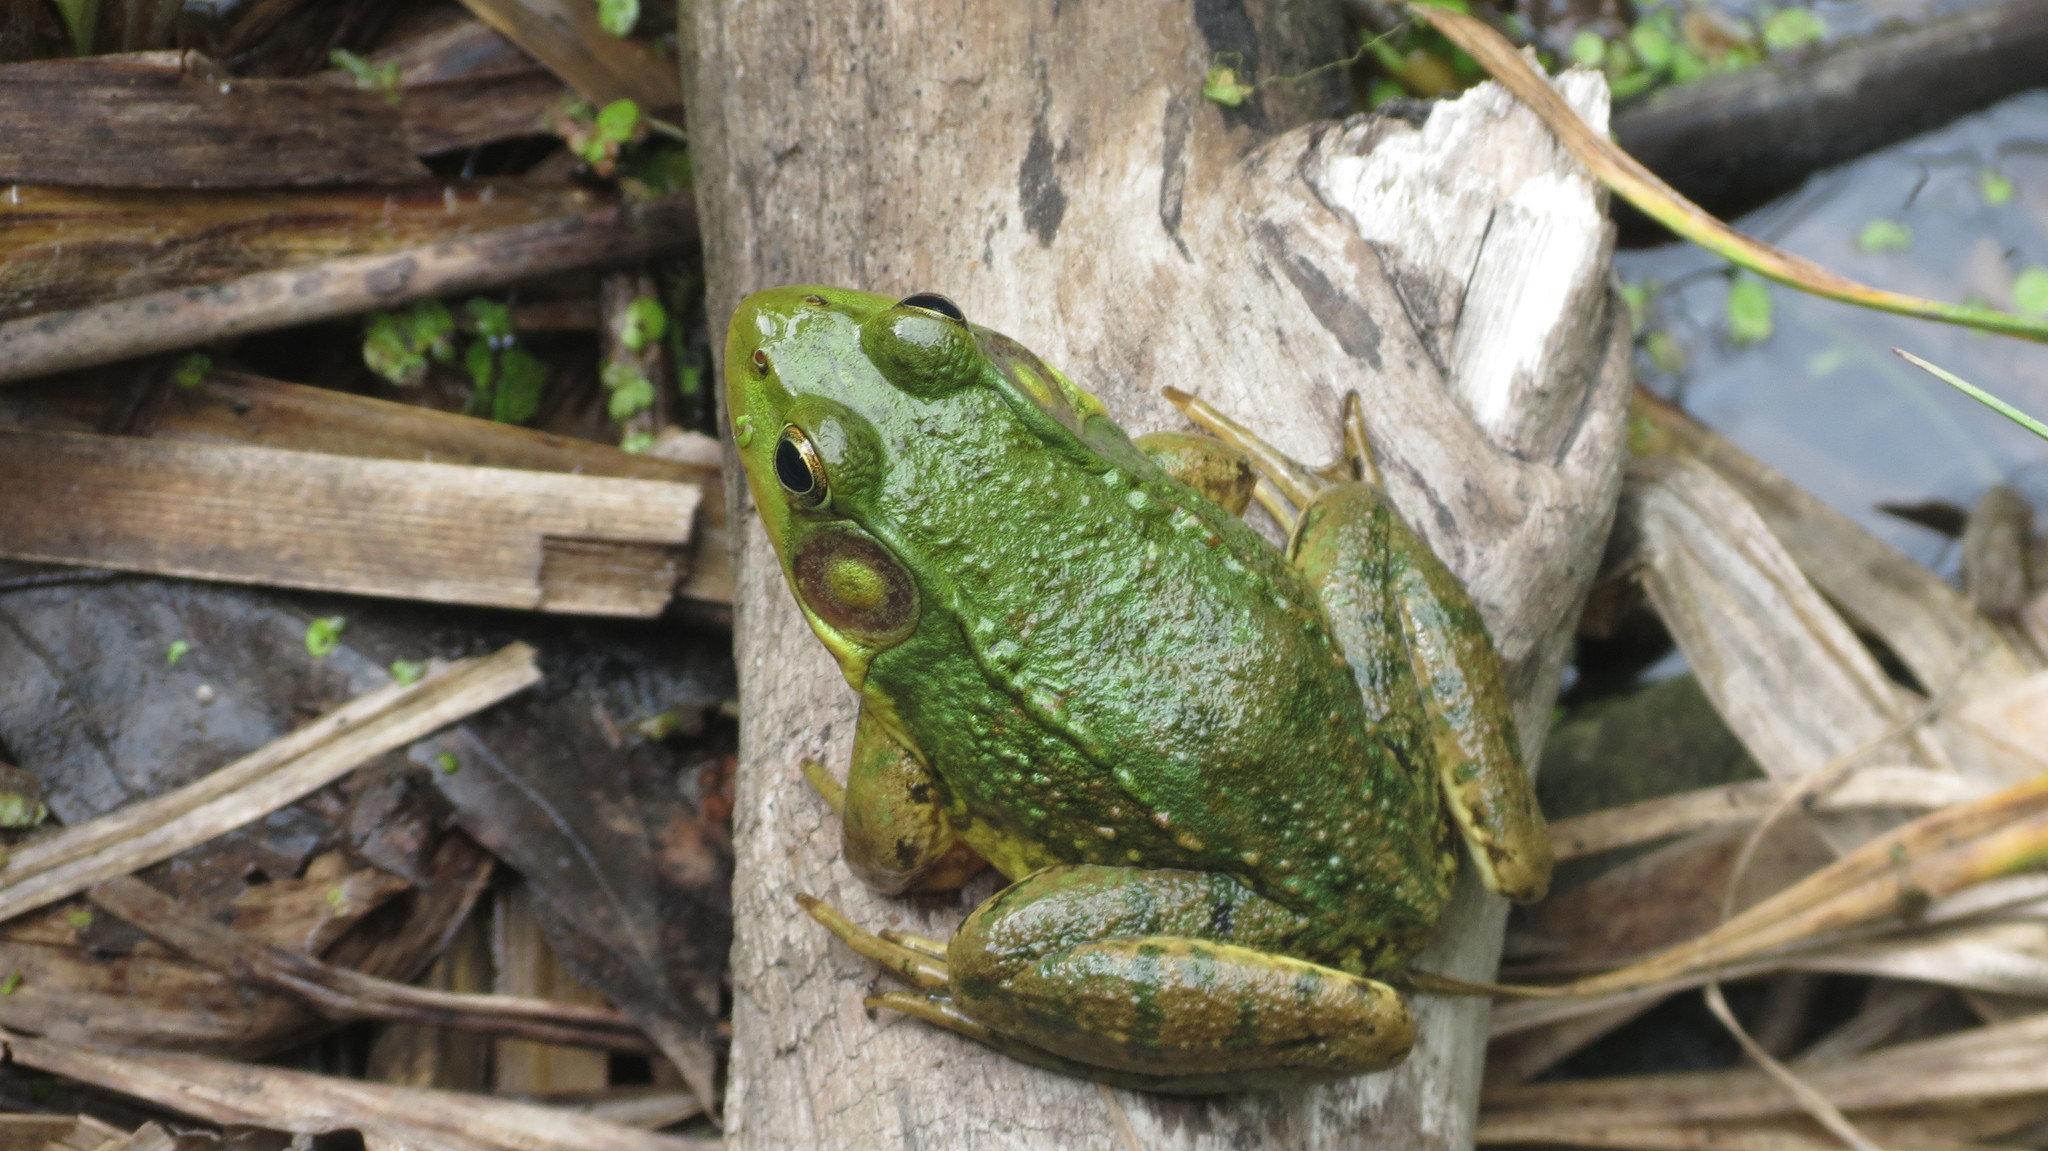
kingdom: Animalia
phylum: Chordata
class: Amphibia
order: Anura
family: Ranidae
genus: Lithobates
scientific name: Lithobates clamitans
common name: Green frog
